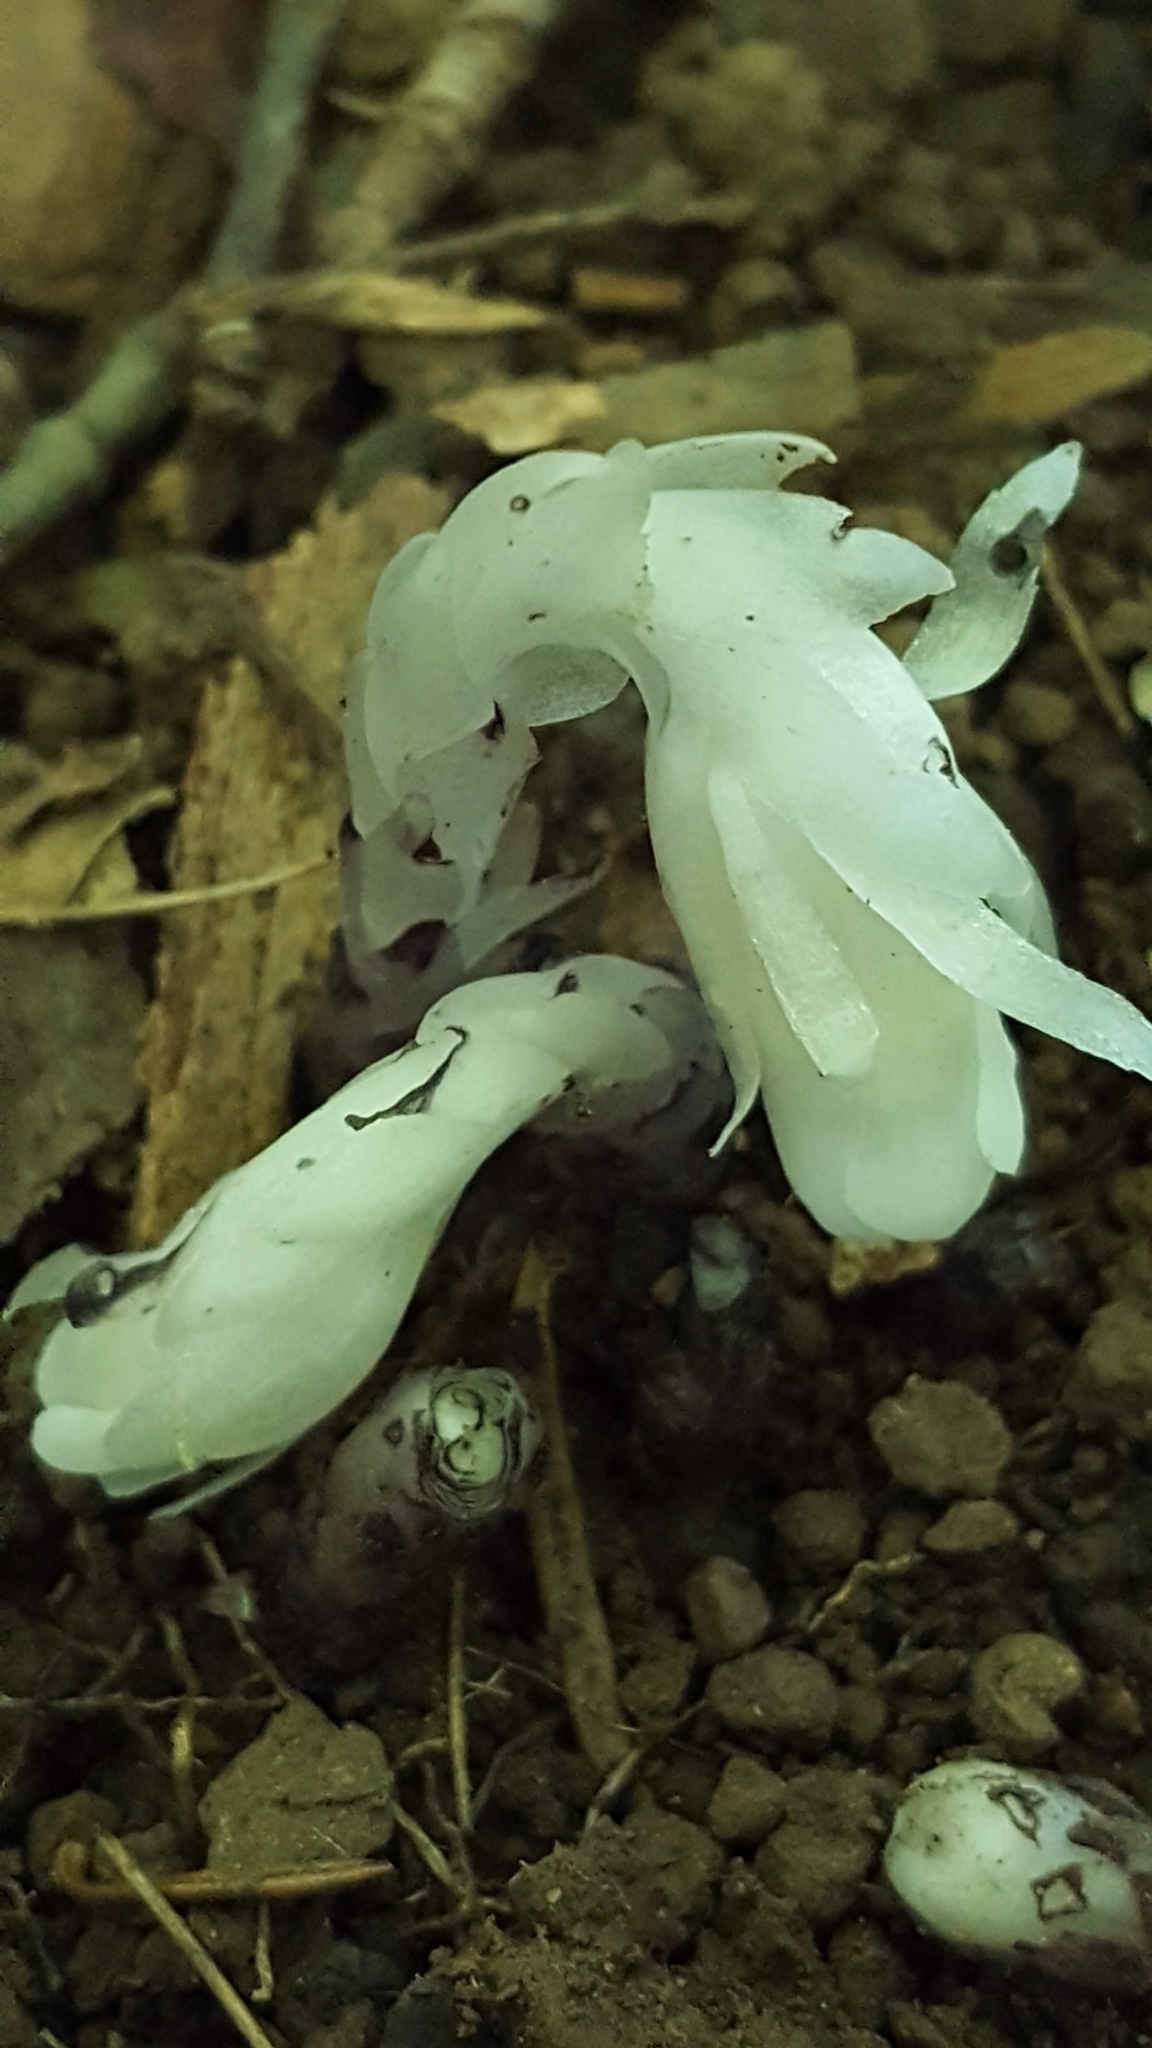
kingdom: Plantae
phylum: Tracheophyta
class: Magnoliopsida
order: Ericales
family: Ericaceae
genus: Monotropa
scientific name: Monotropa uniflora
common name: Convulsion root
